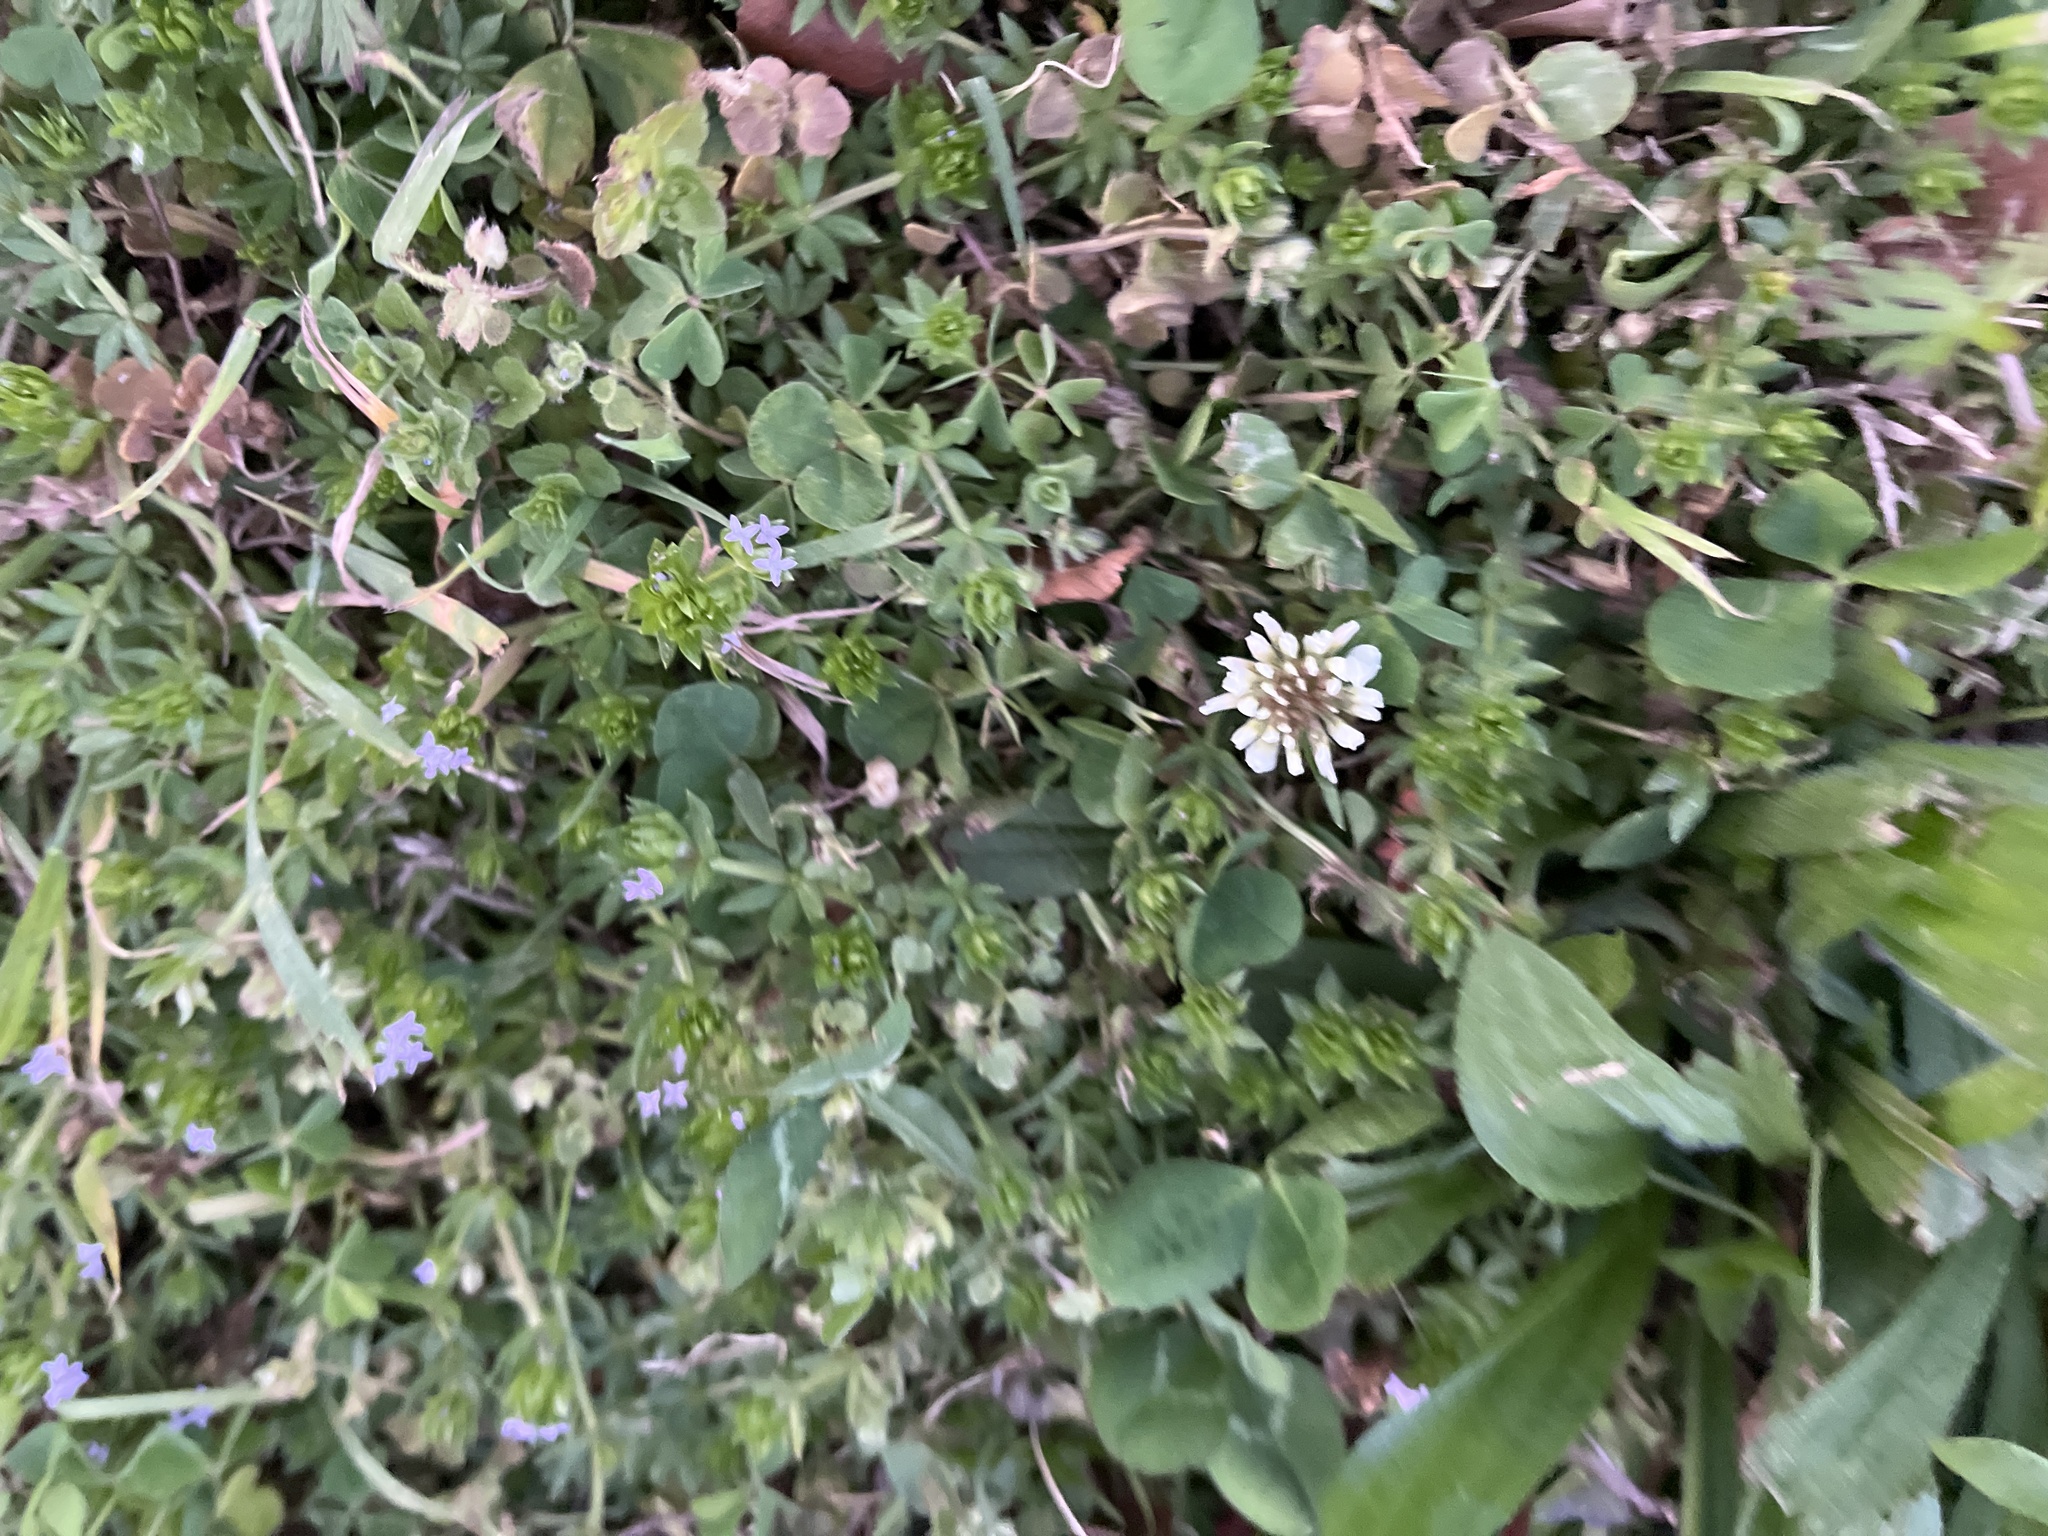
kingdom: Plantae
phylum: Tracheophyta
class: Magnoliopsida
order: Fabales
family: Fabaceae
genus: Trifolium
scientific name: Trifolium repens
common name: White clover
